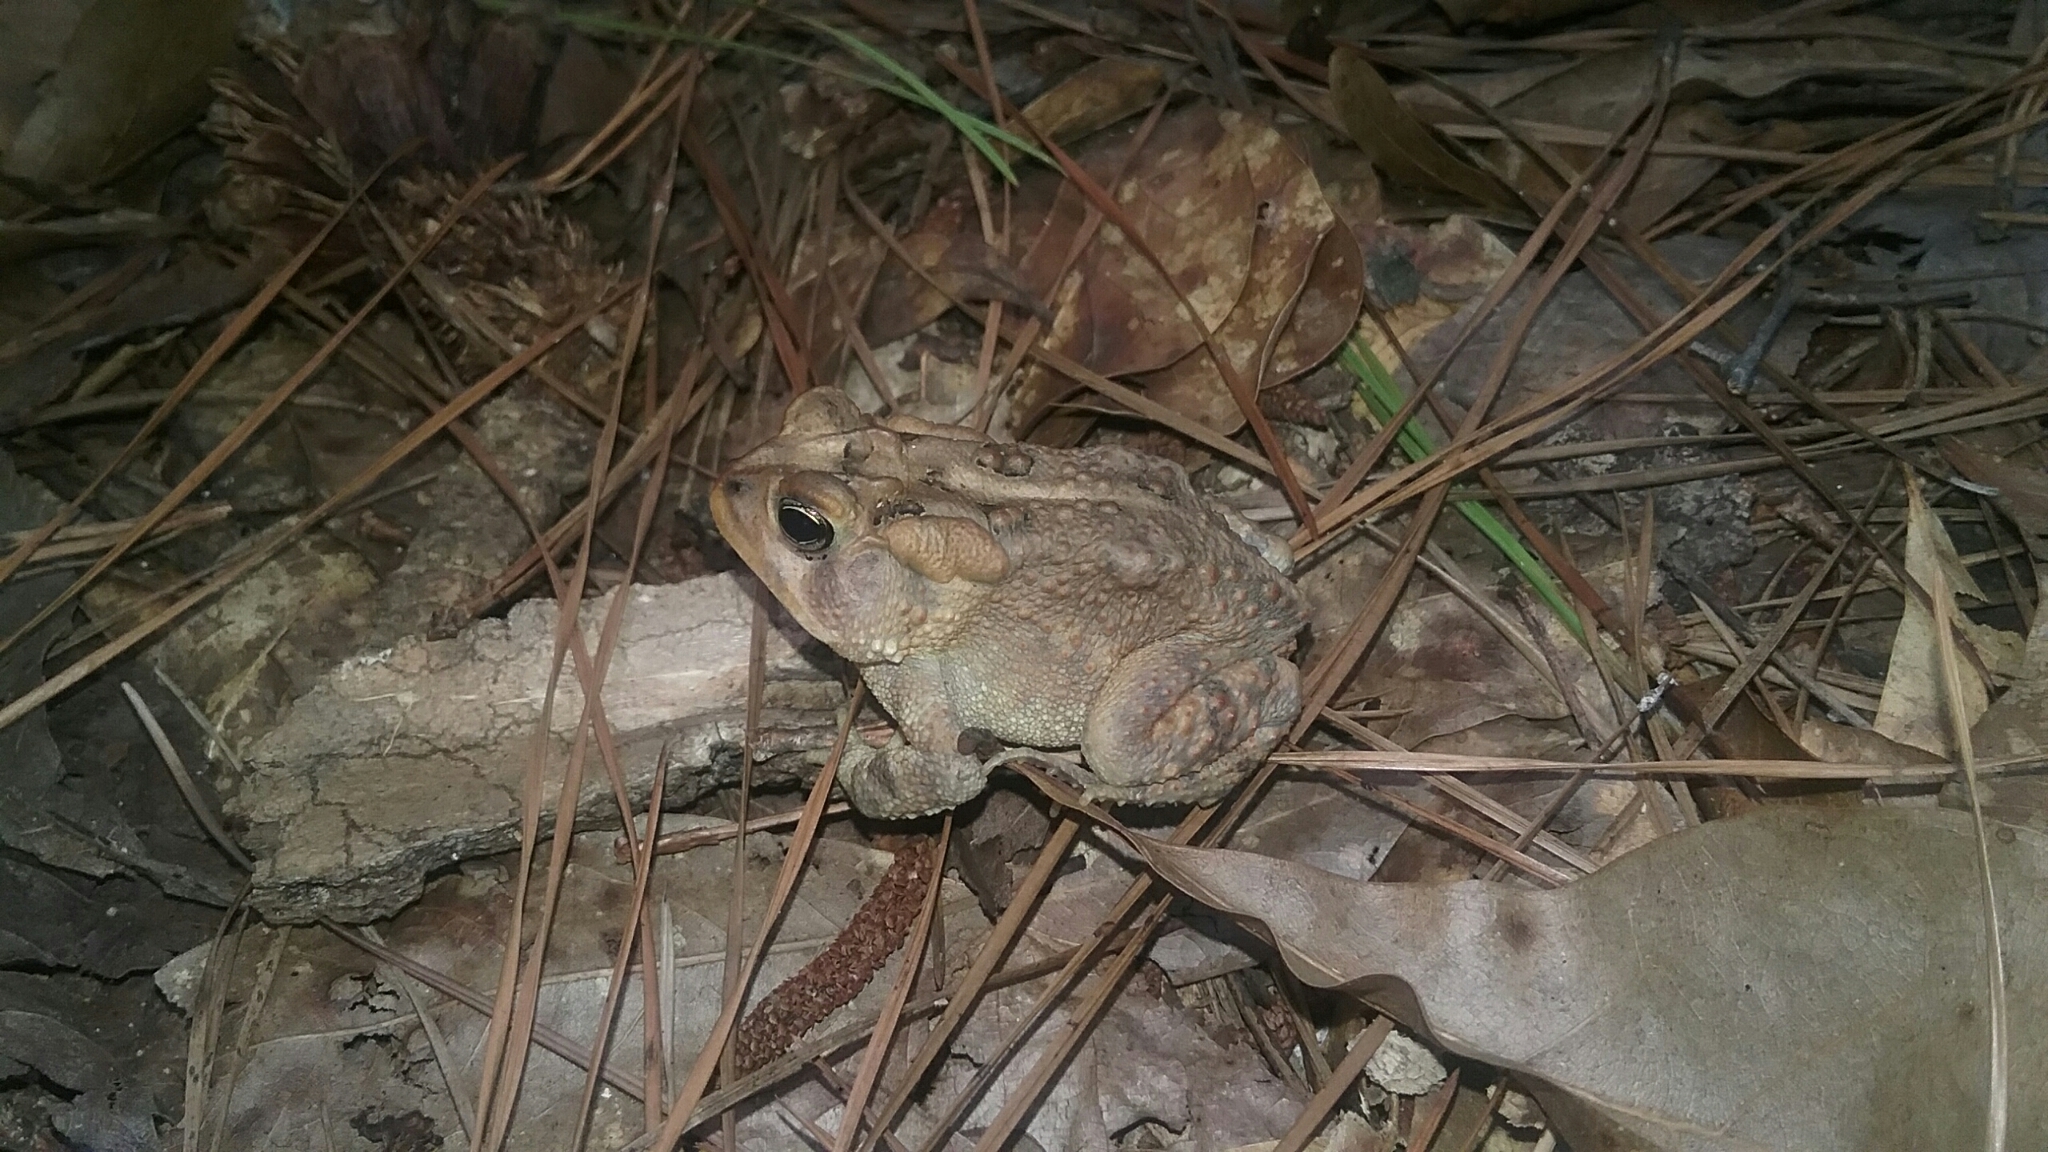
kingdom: Animalia
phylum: Chordata
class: Amphibia
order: Anura
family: Bufonidae
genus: Anaxyrus
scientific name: Anaxyrus terrestris
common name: Southern toad
